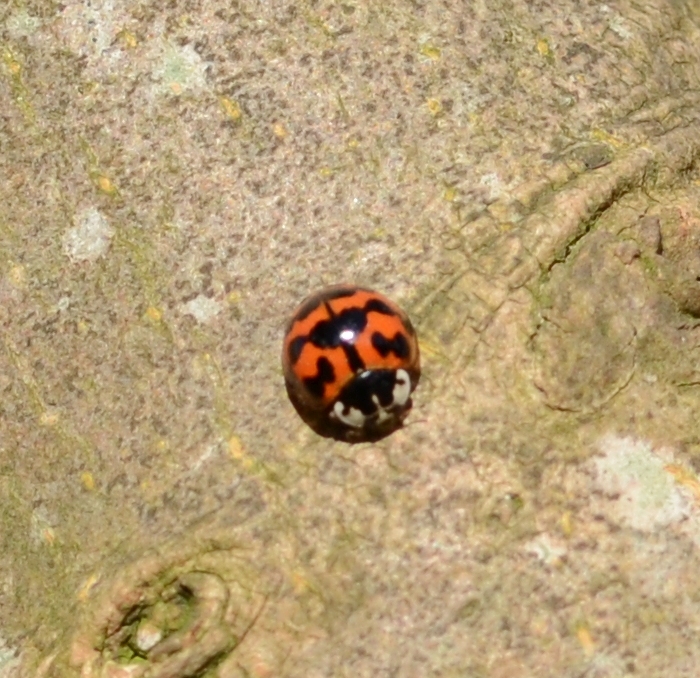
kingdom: Animalia
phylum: Arthropoda
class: Insecta
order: Coleoptera
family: Coccinellidae
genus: Harmonia
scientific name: Harmonia axyridis
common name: Harlequin ladybird
